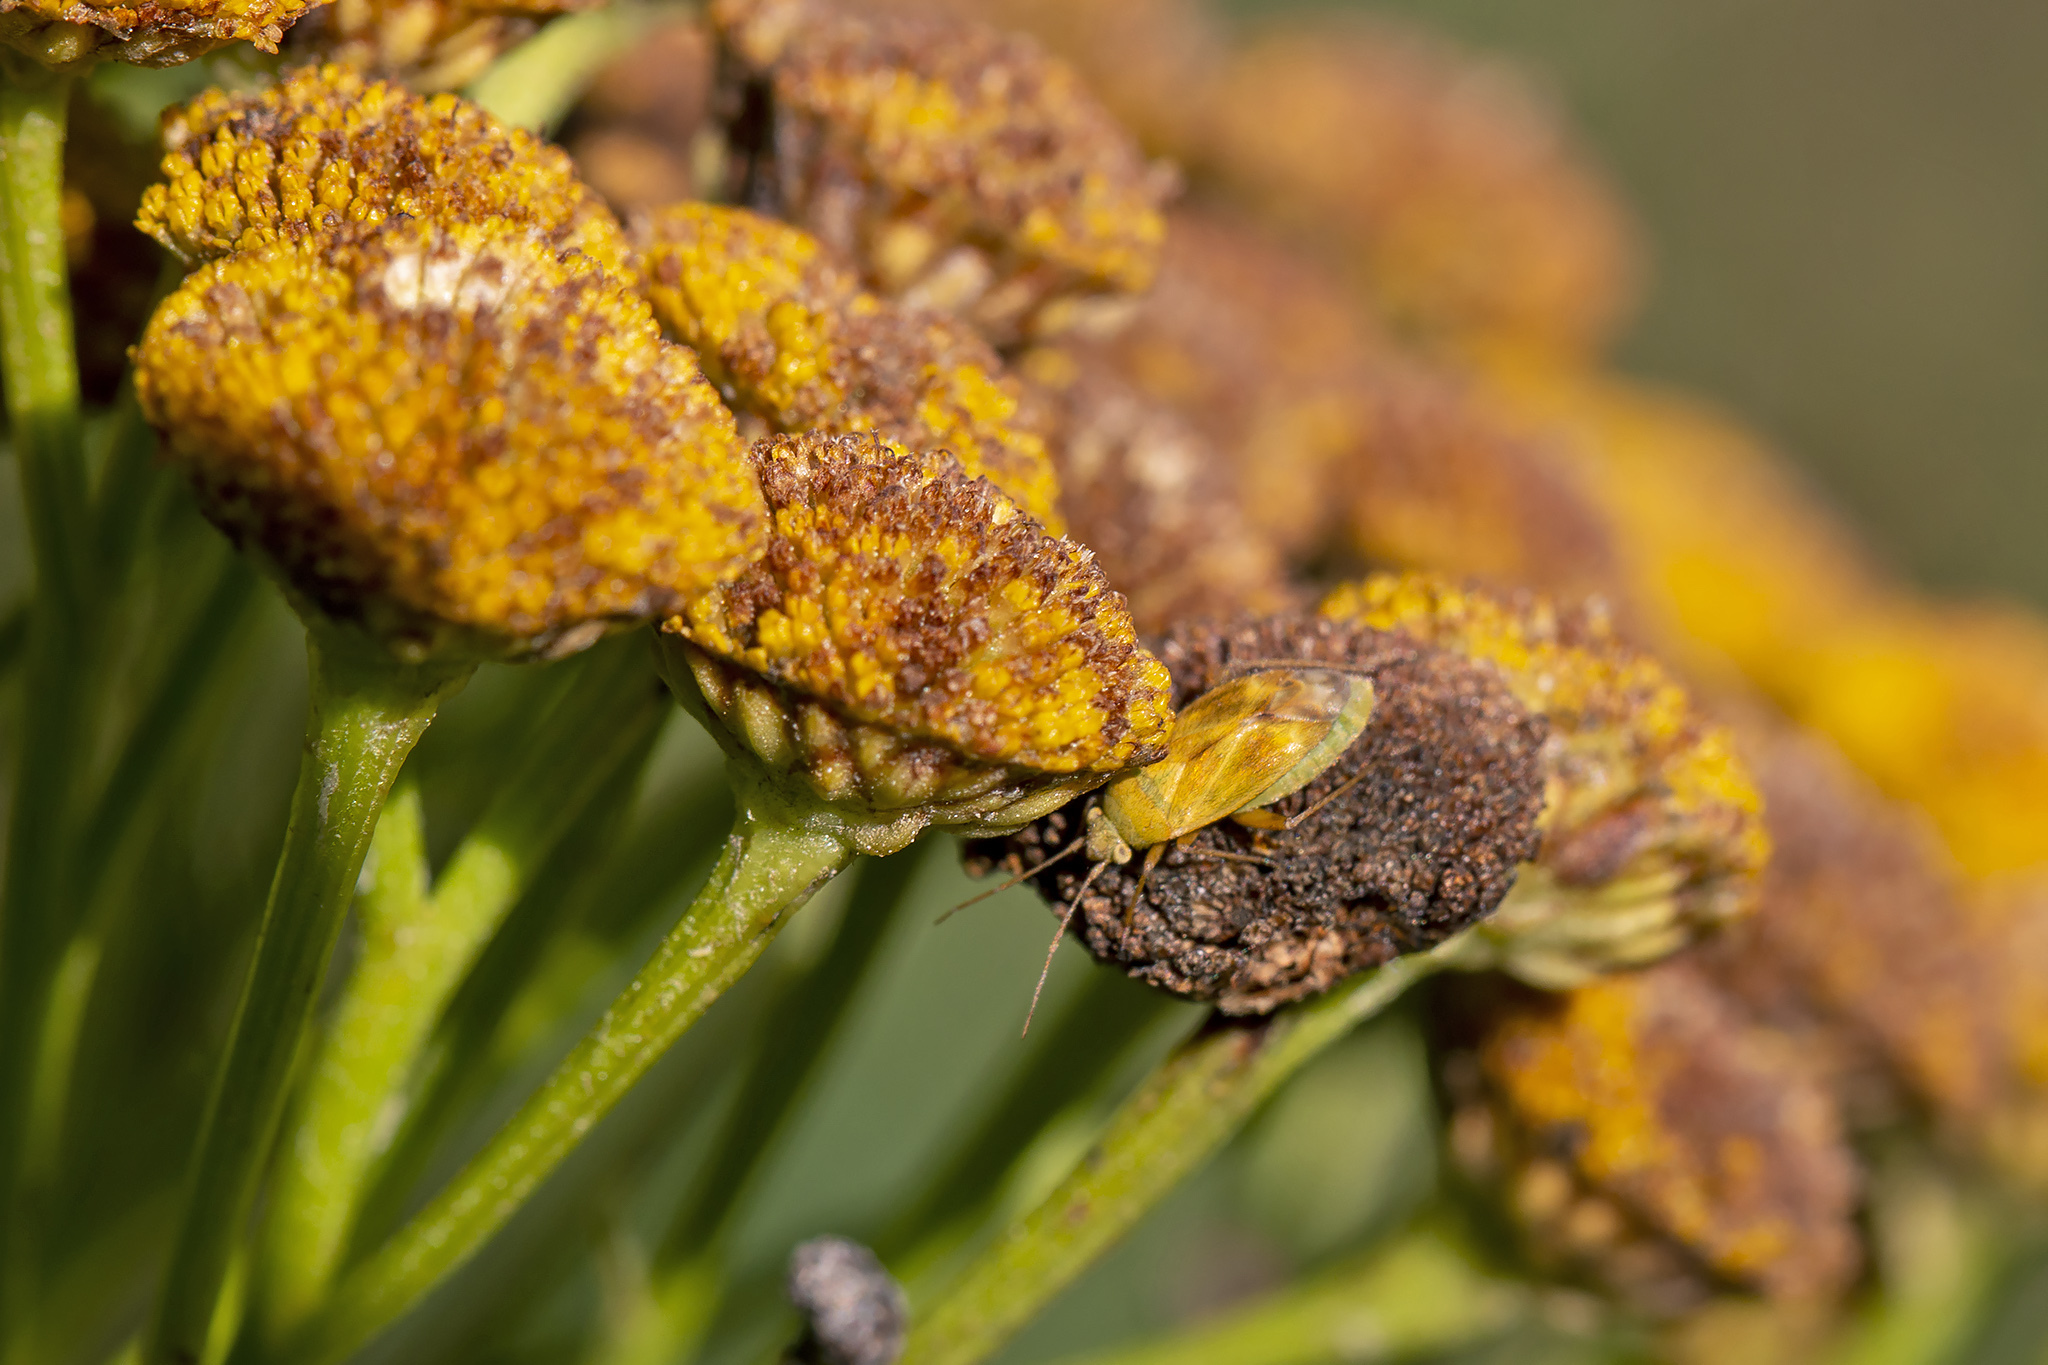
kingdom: Animalia
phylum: Arthropoda
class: Insecta
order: Hemiptera
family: Miridae
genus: Megalocoleus
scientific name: Megalocoleus tanaceti
